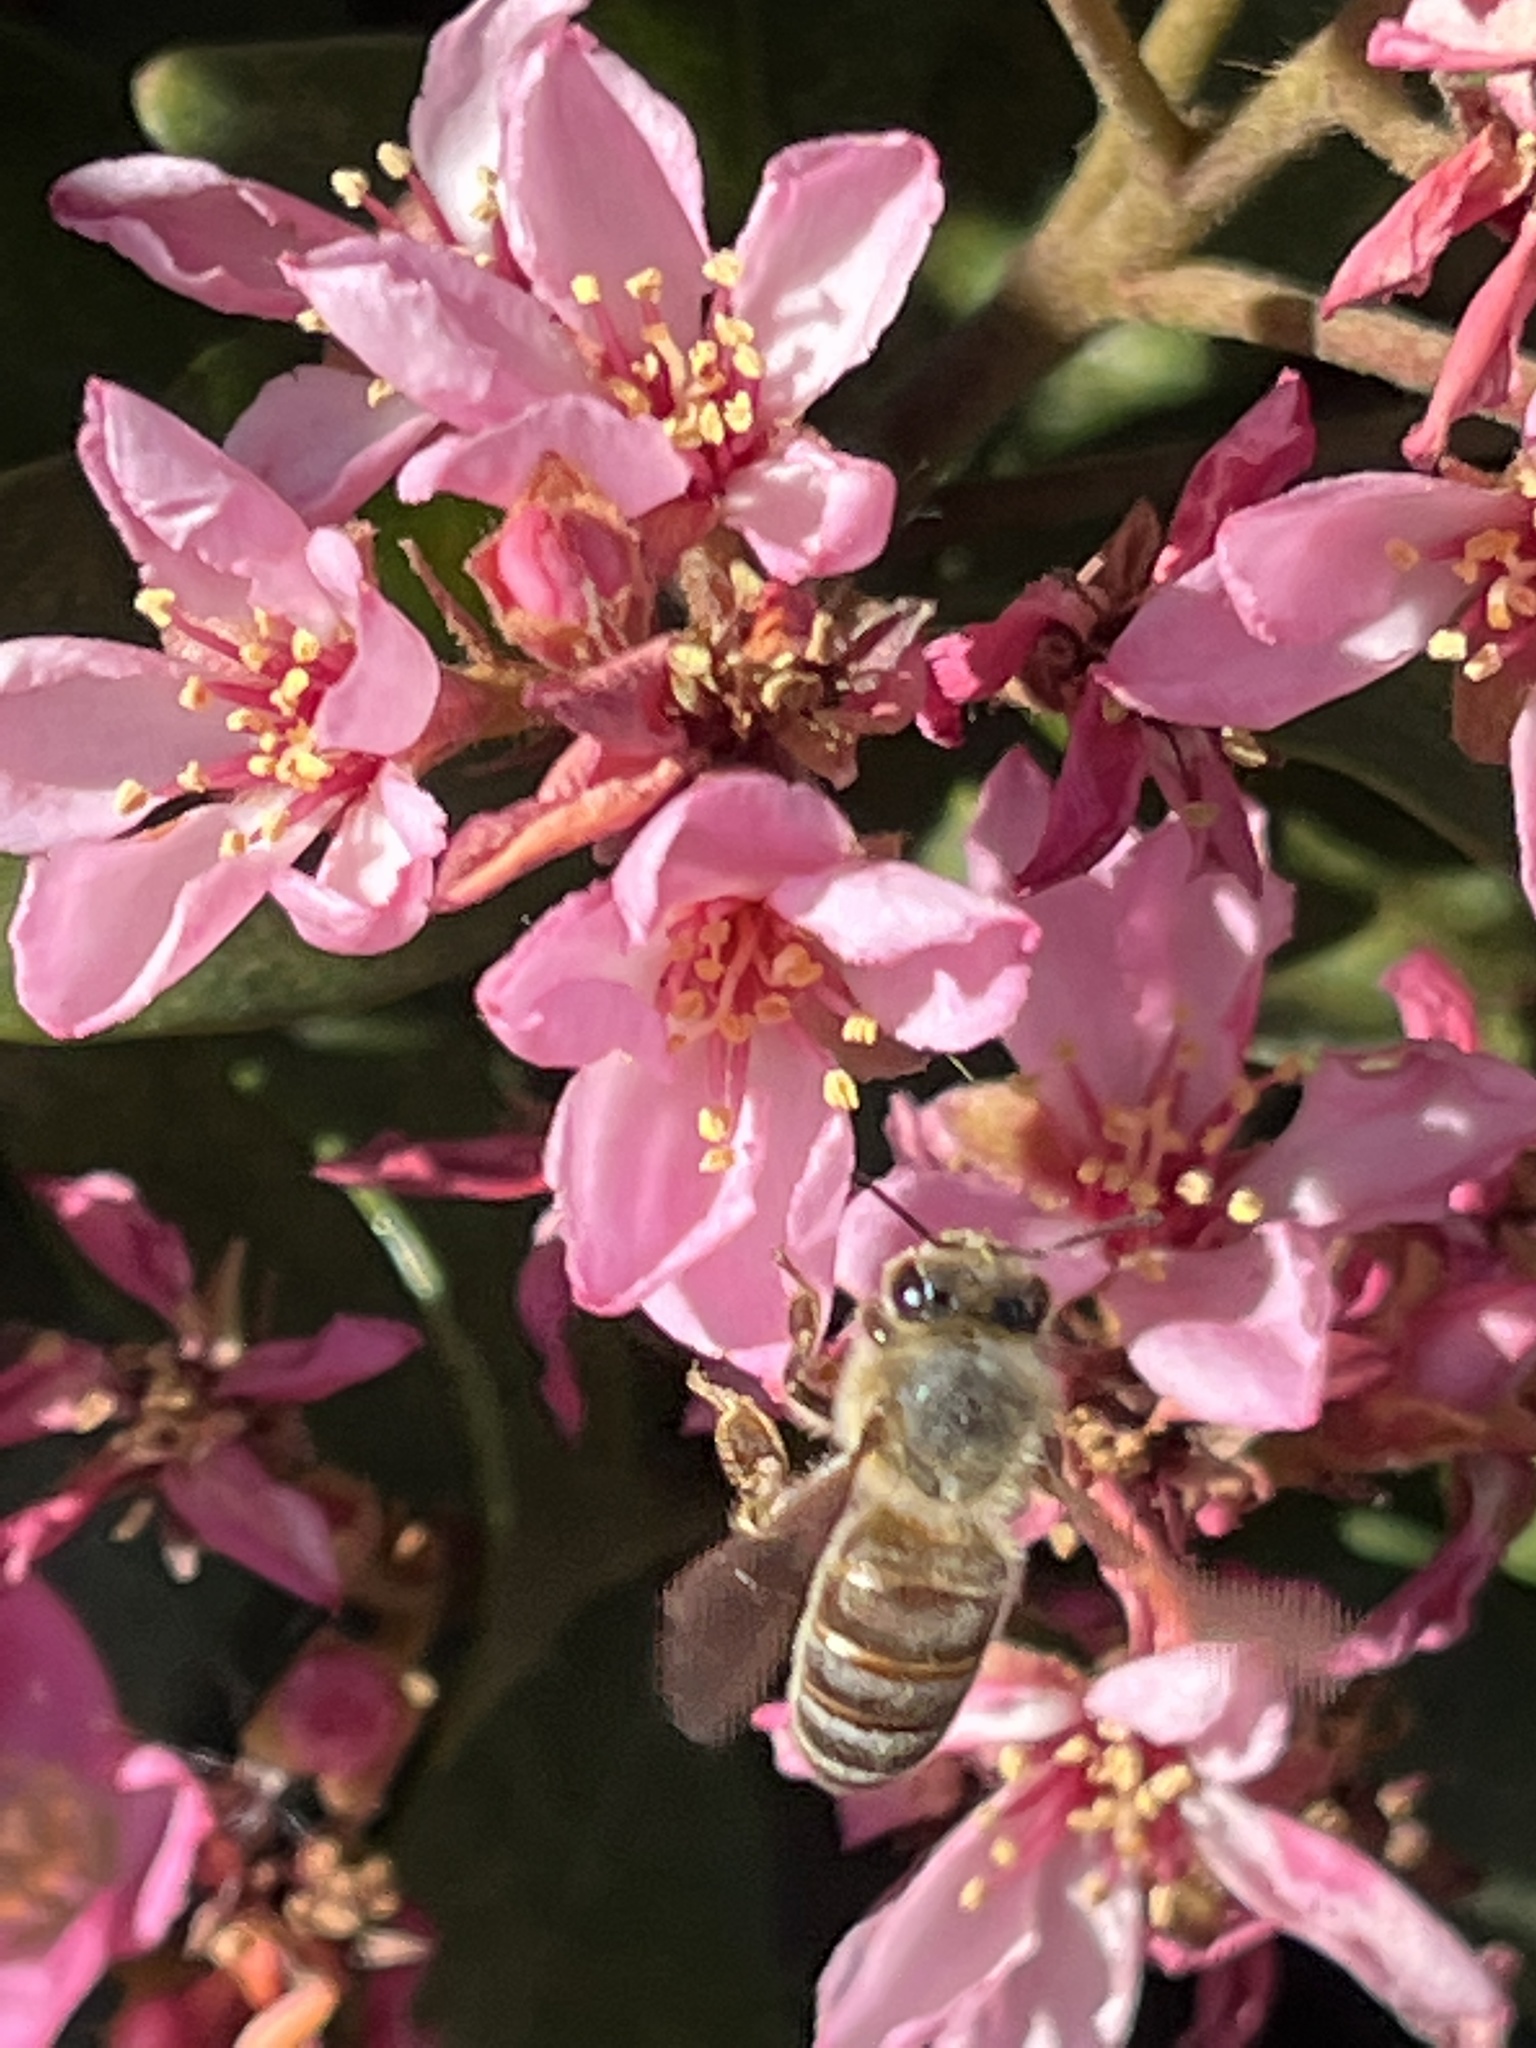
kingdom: Animalia
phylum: Arthropoda
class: Insecta
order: Hymenoptera
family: Apidae
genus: Apis
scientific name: Apis mellifera
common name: Honey bee
